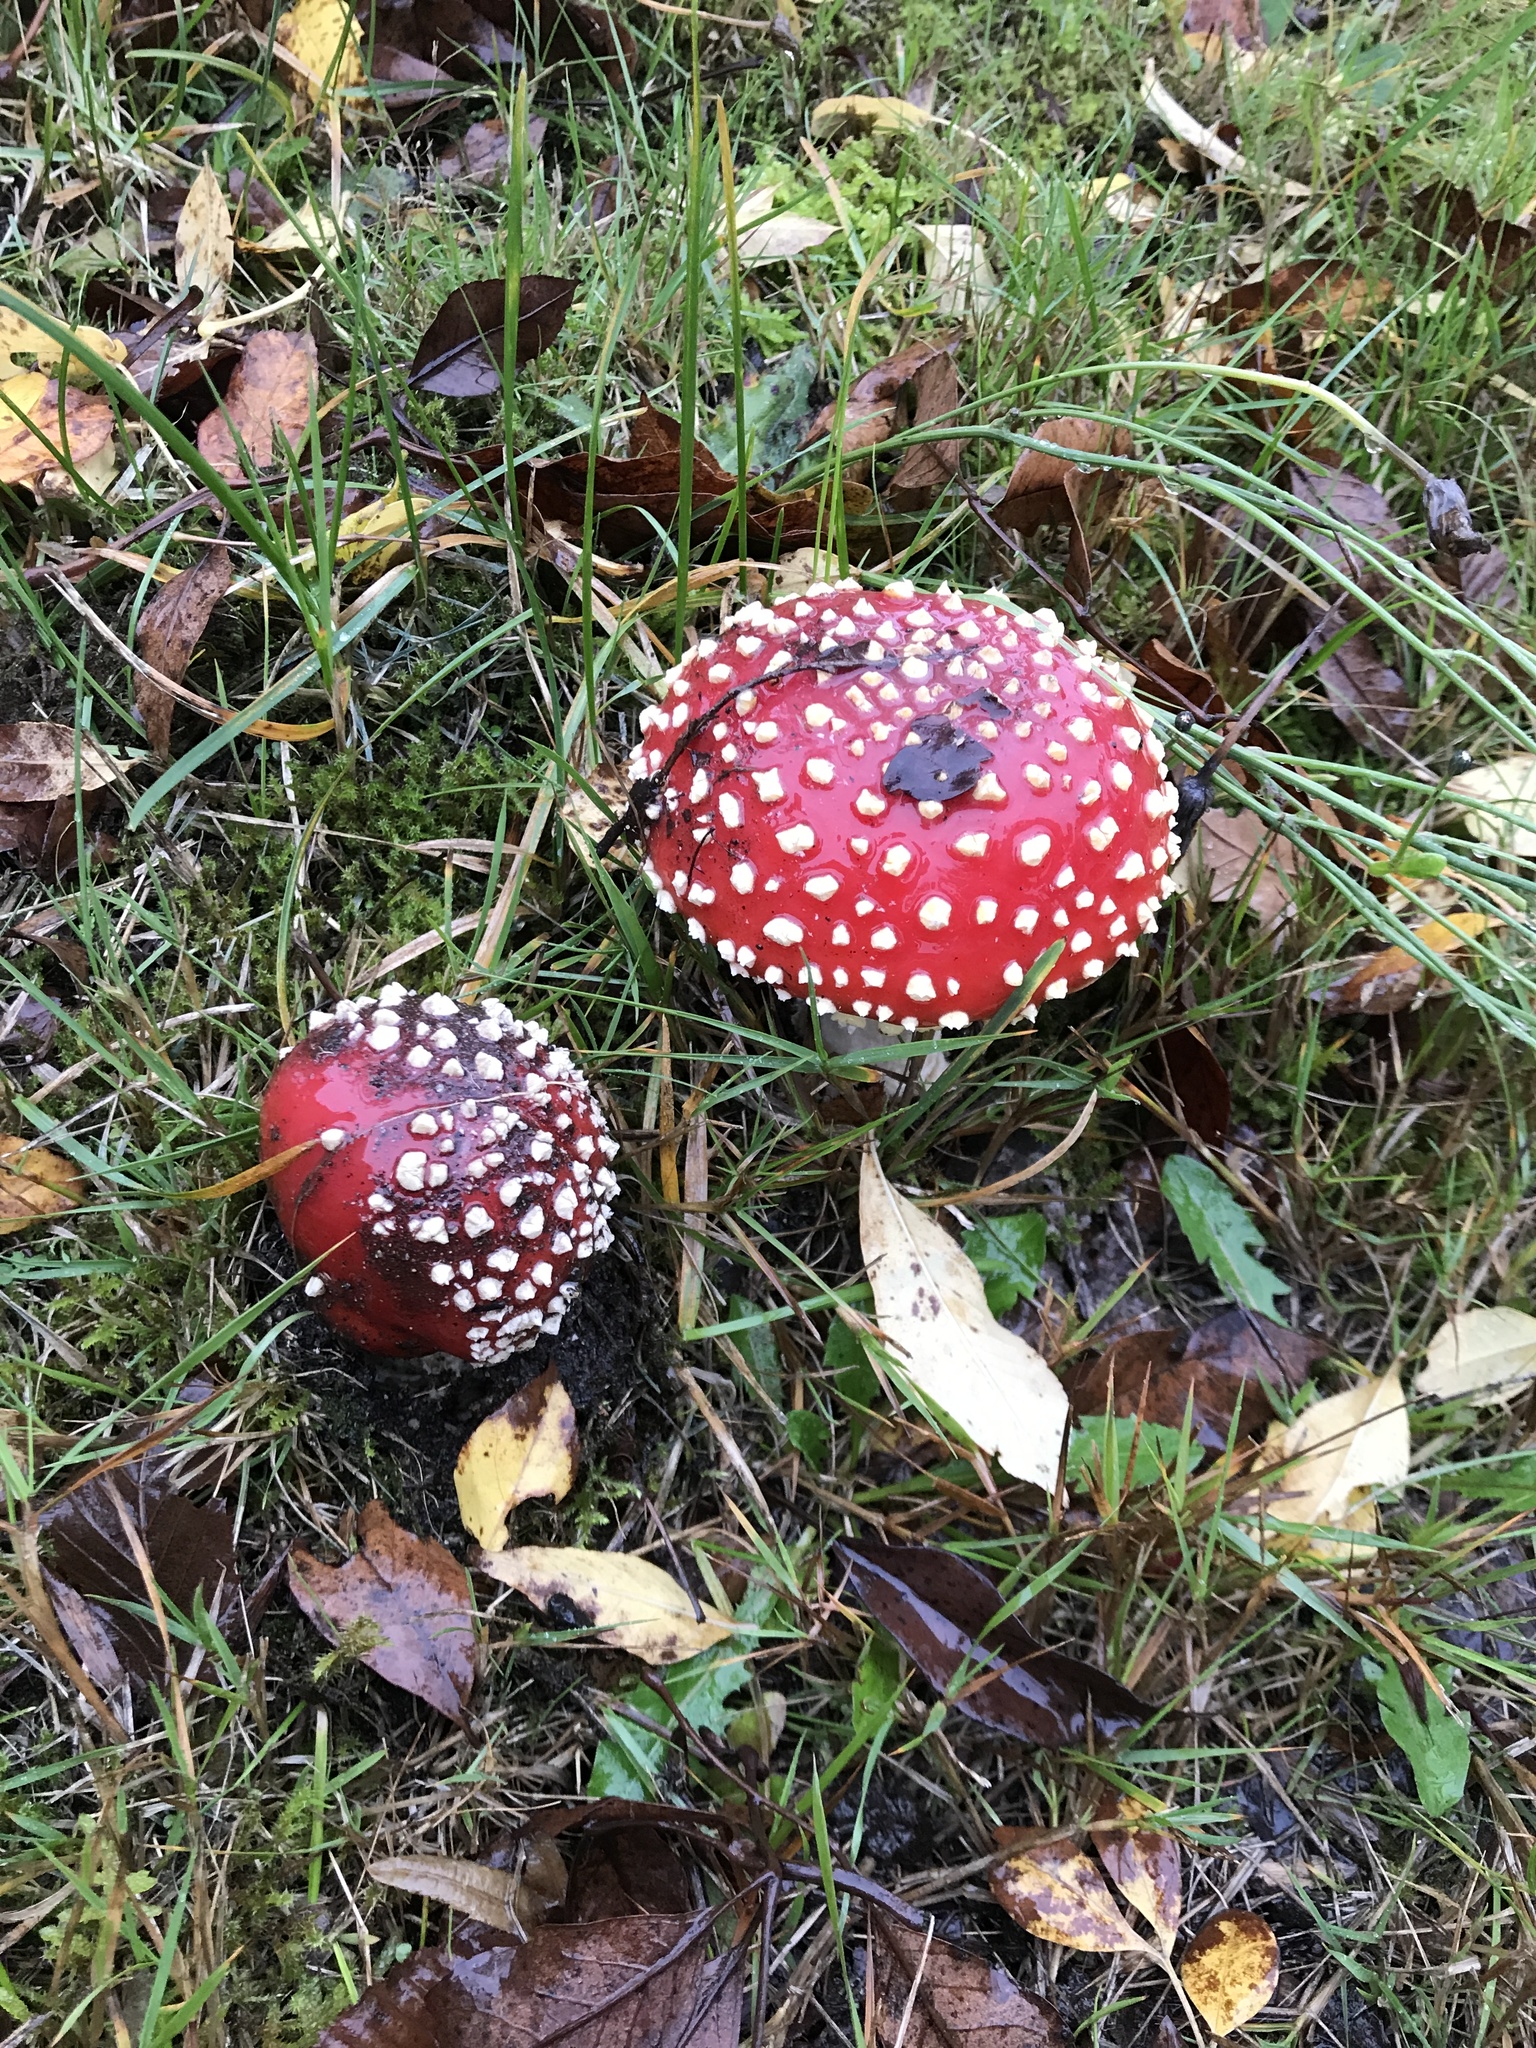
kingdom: Fungi
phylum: Basidiomycota
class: Agaricomycetes
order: Agaricales
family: Amanitaceae
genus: Amanita
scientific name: Amanita muscaria
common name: Fly agaric
